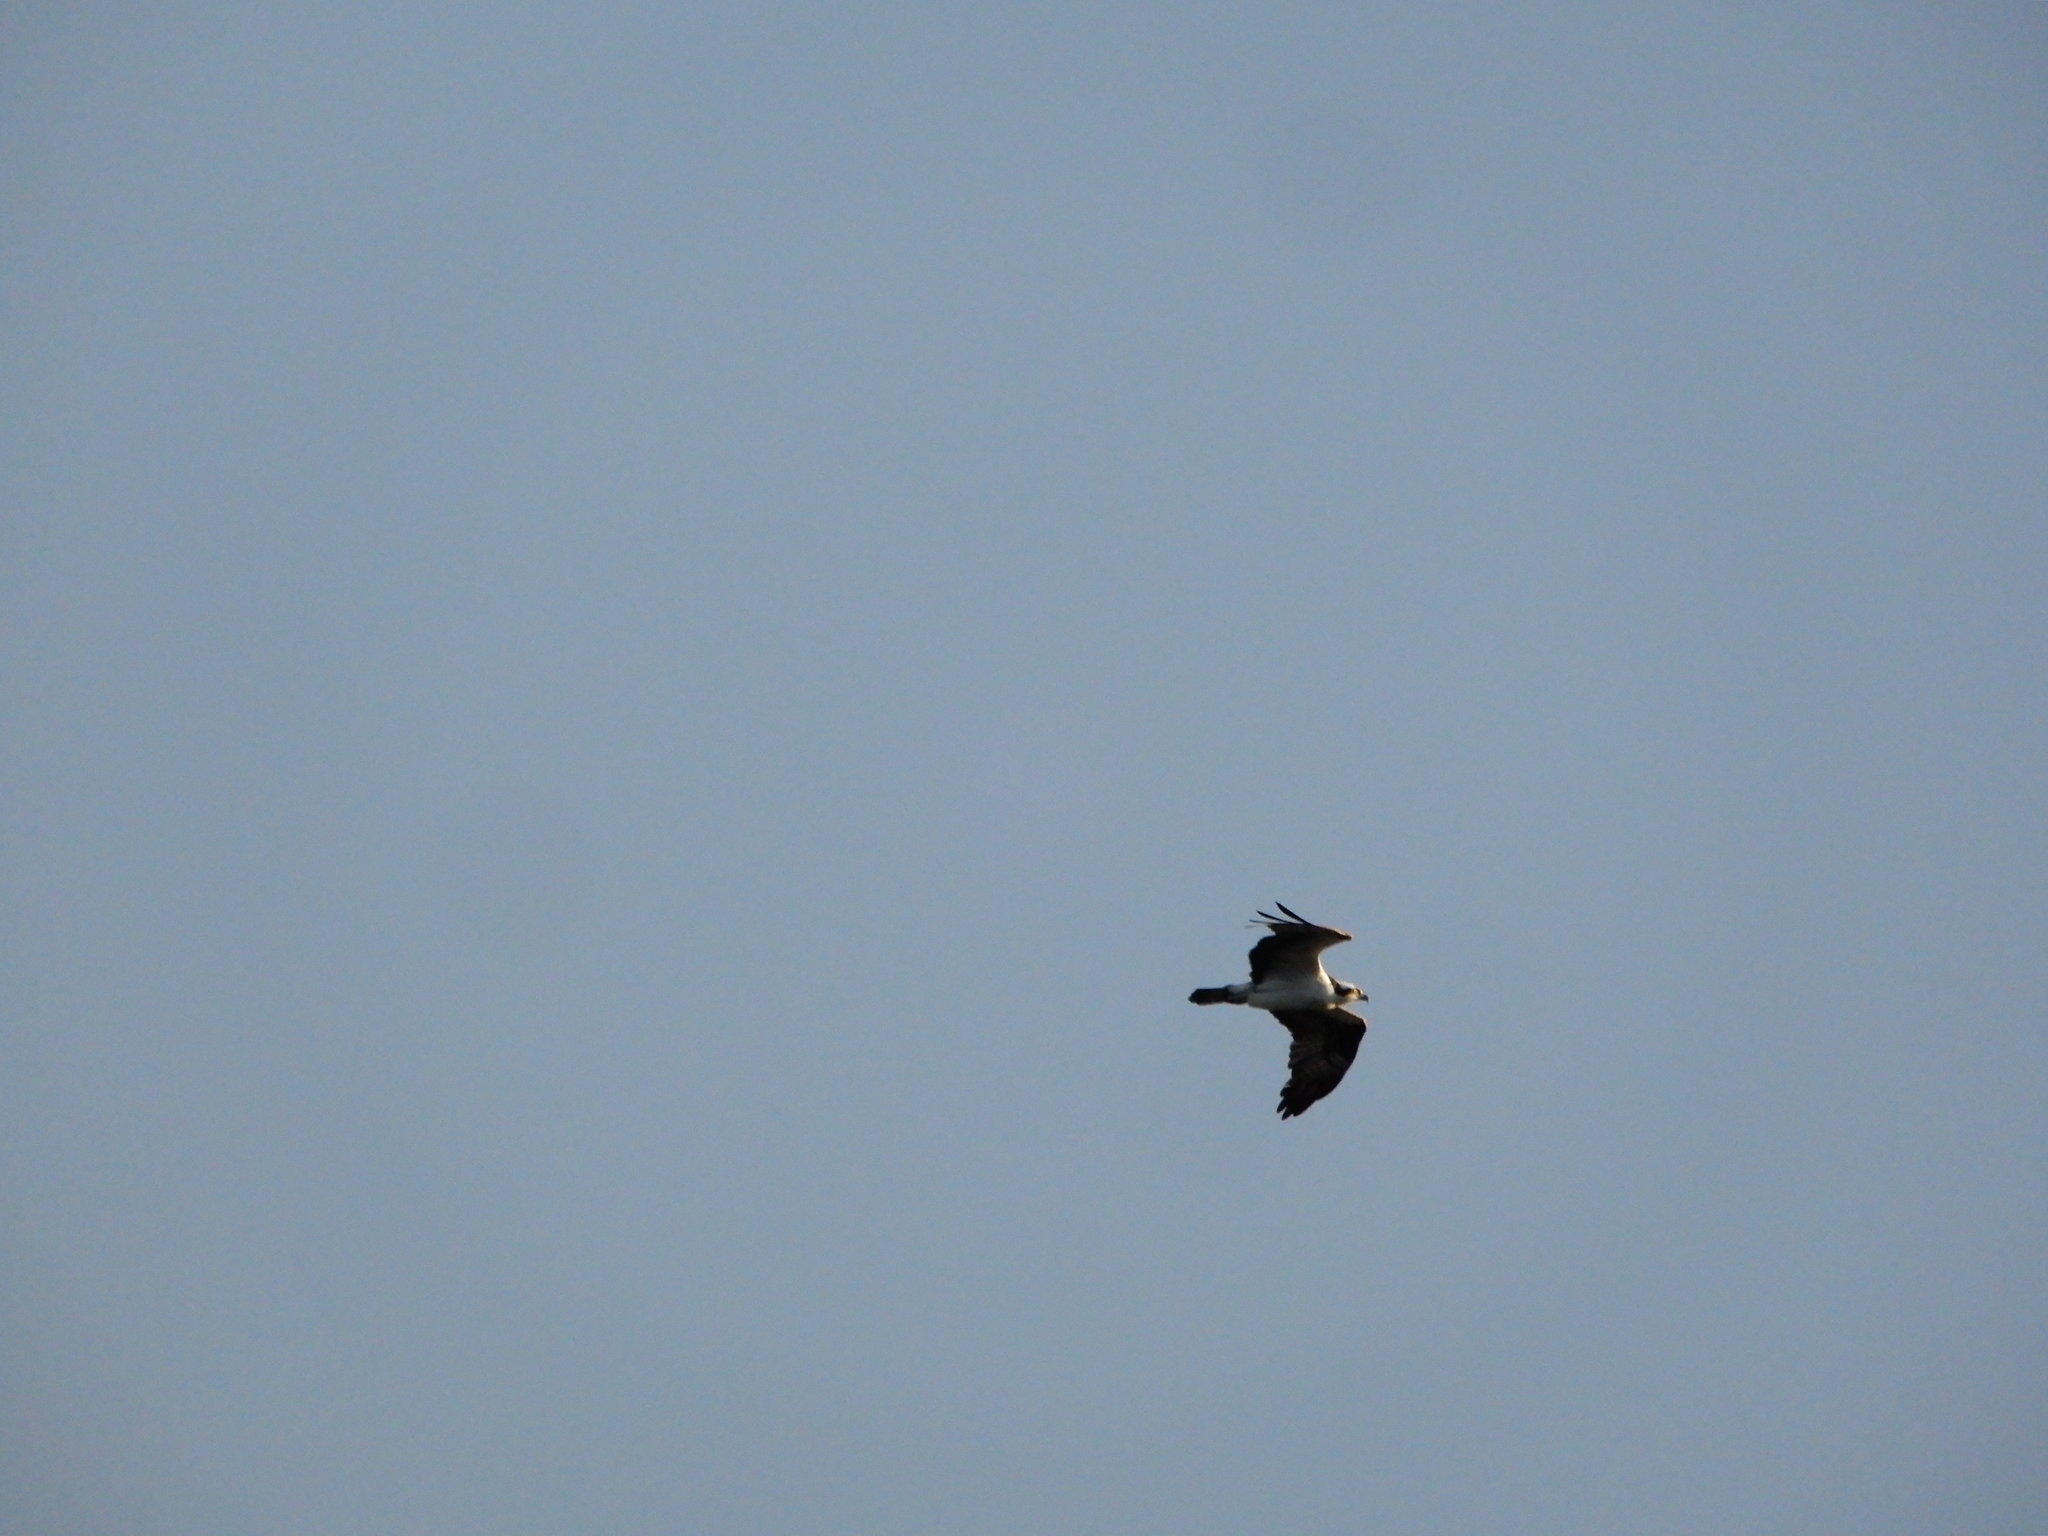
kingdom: Animalia
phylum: Chordata
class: Aves
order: Accipitriformes
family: Pandionidae
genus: Pandion
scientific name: Pandion haliaetus
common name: Osprey
